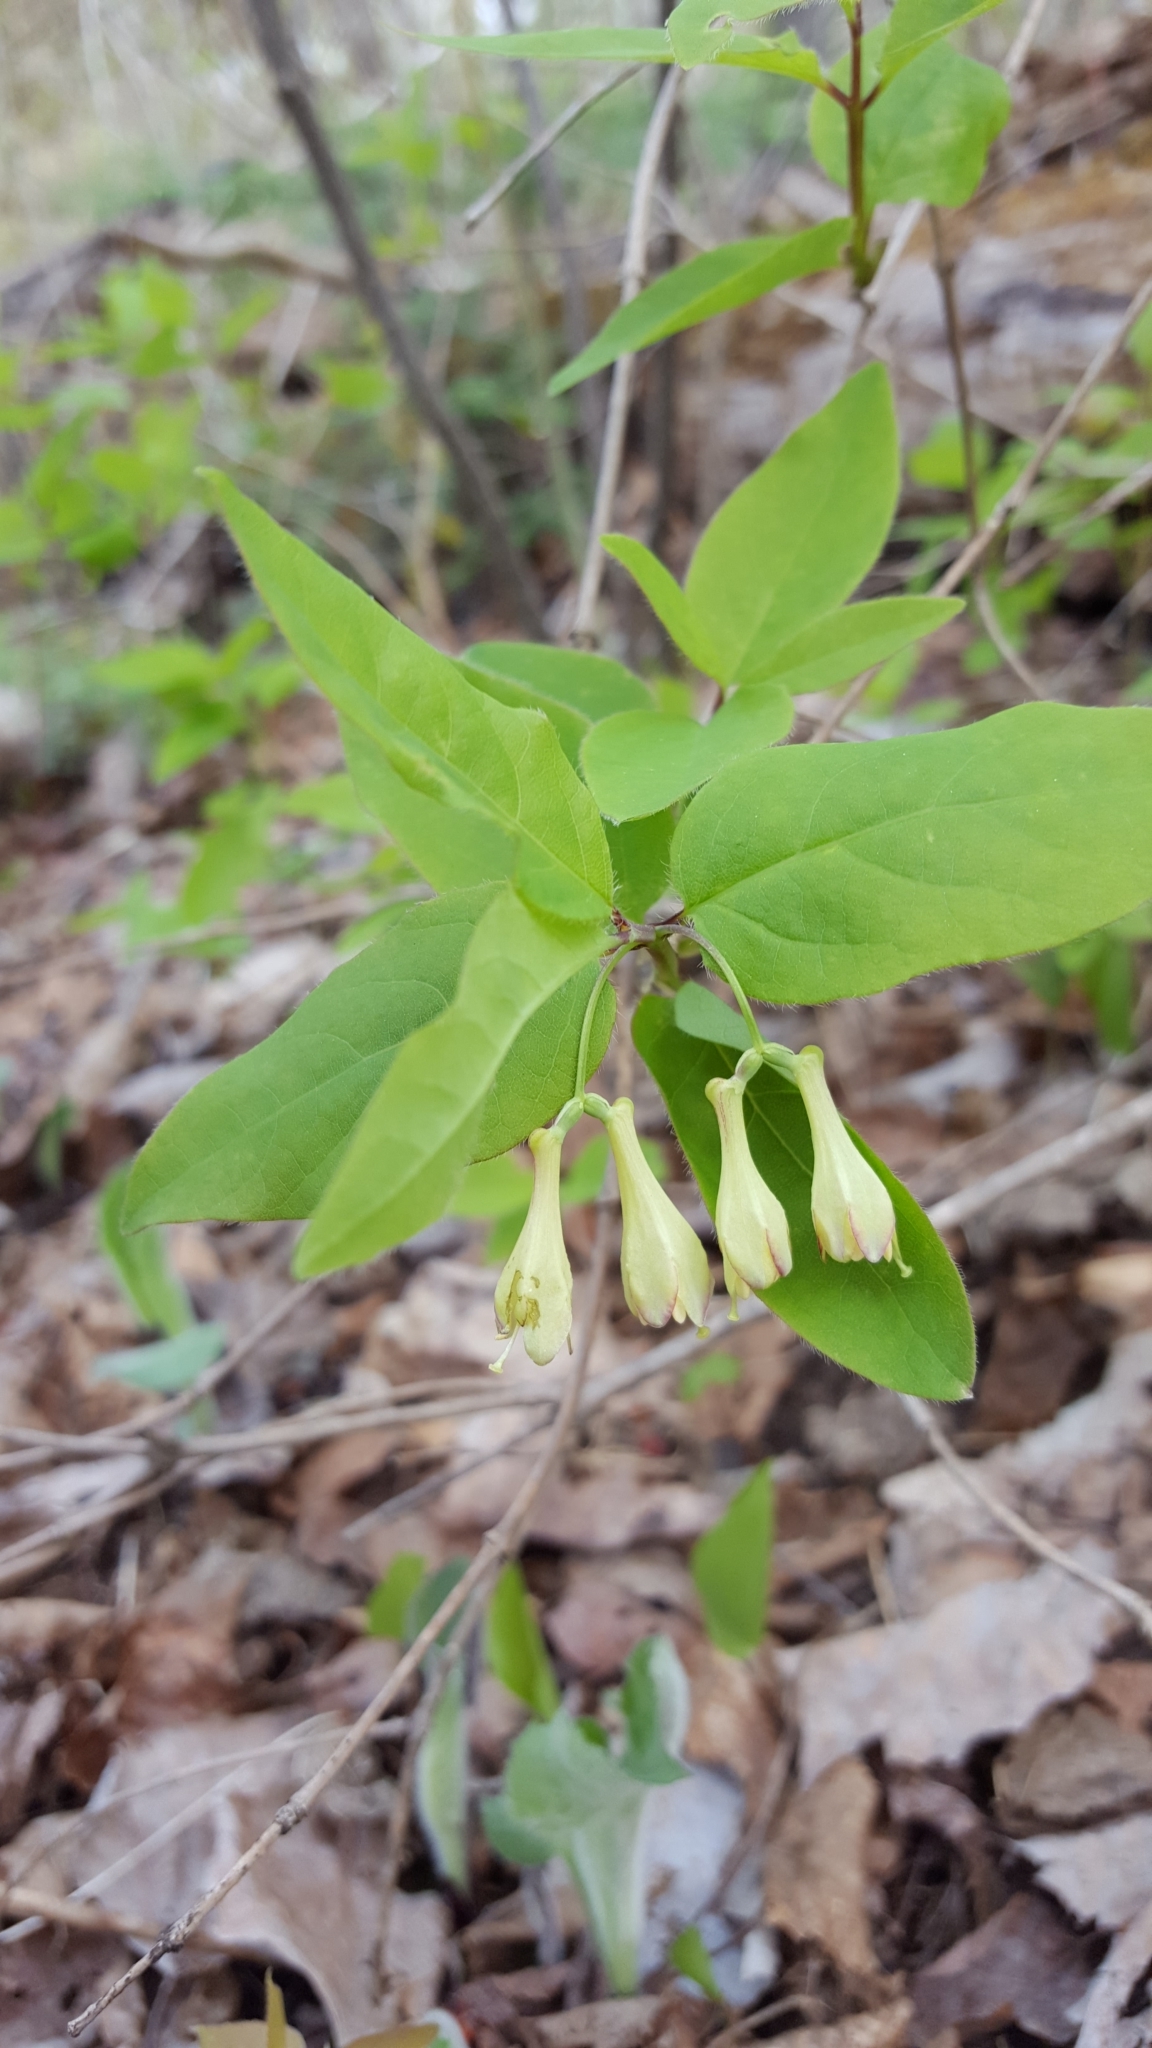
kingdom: Plantae
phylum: Tracheophyta
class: Magnoliopsida
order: Dipsacales
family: Caprifoliaceae
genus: Lonicera
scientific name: Lonicera canadensis
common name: American fly-honeysuckle
